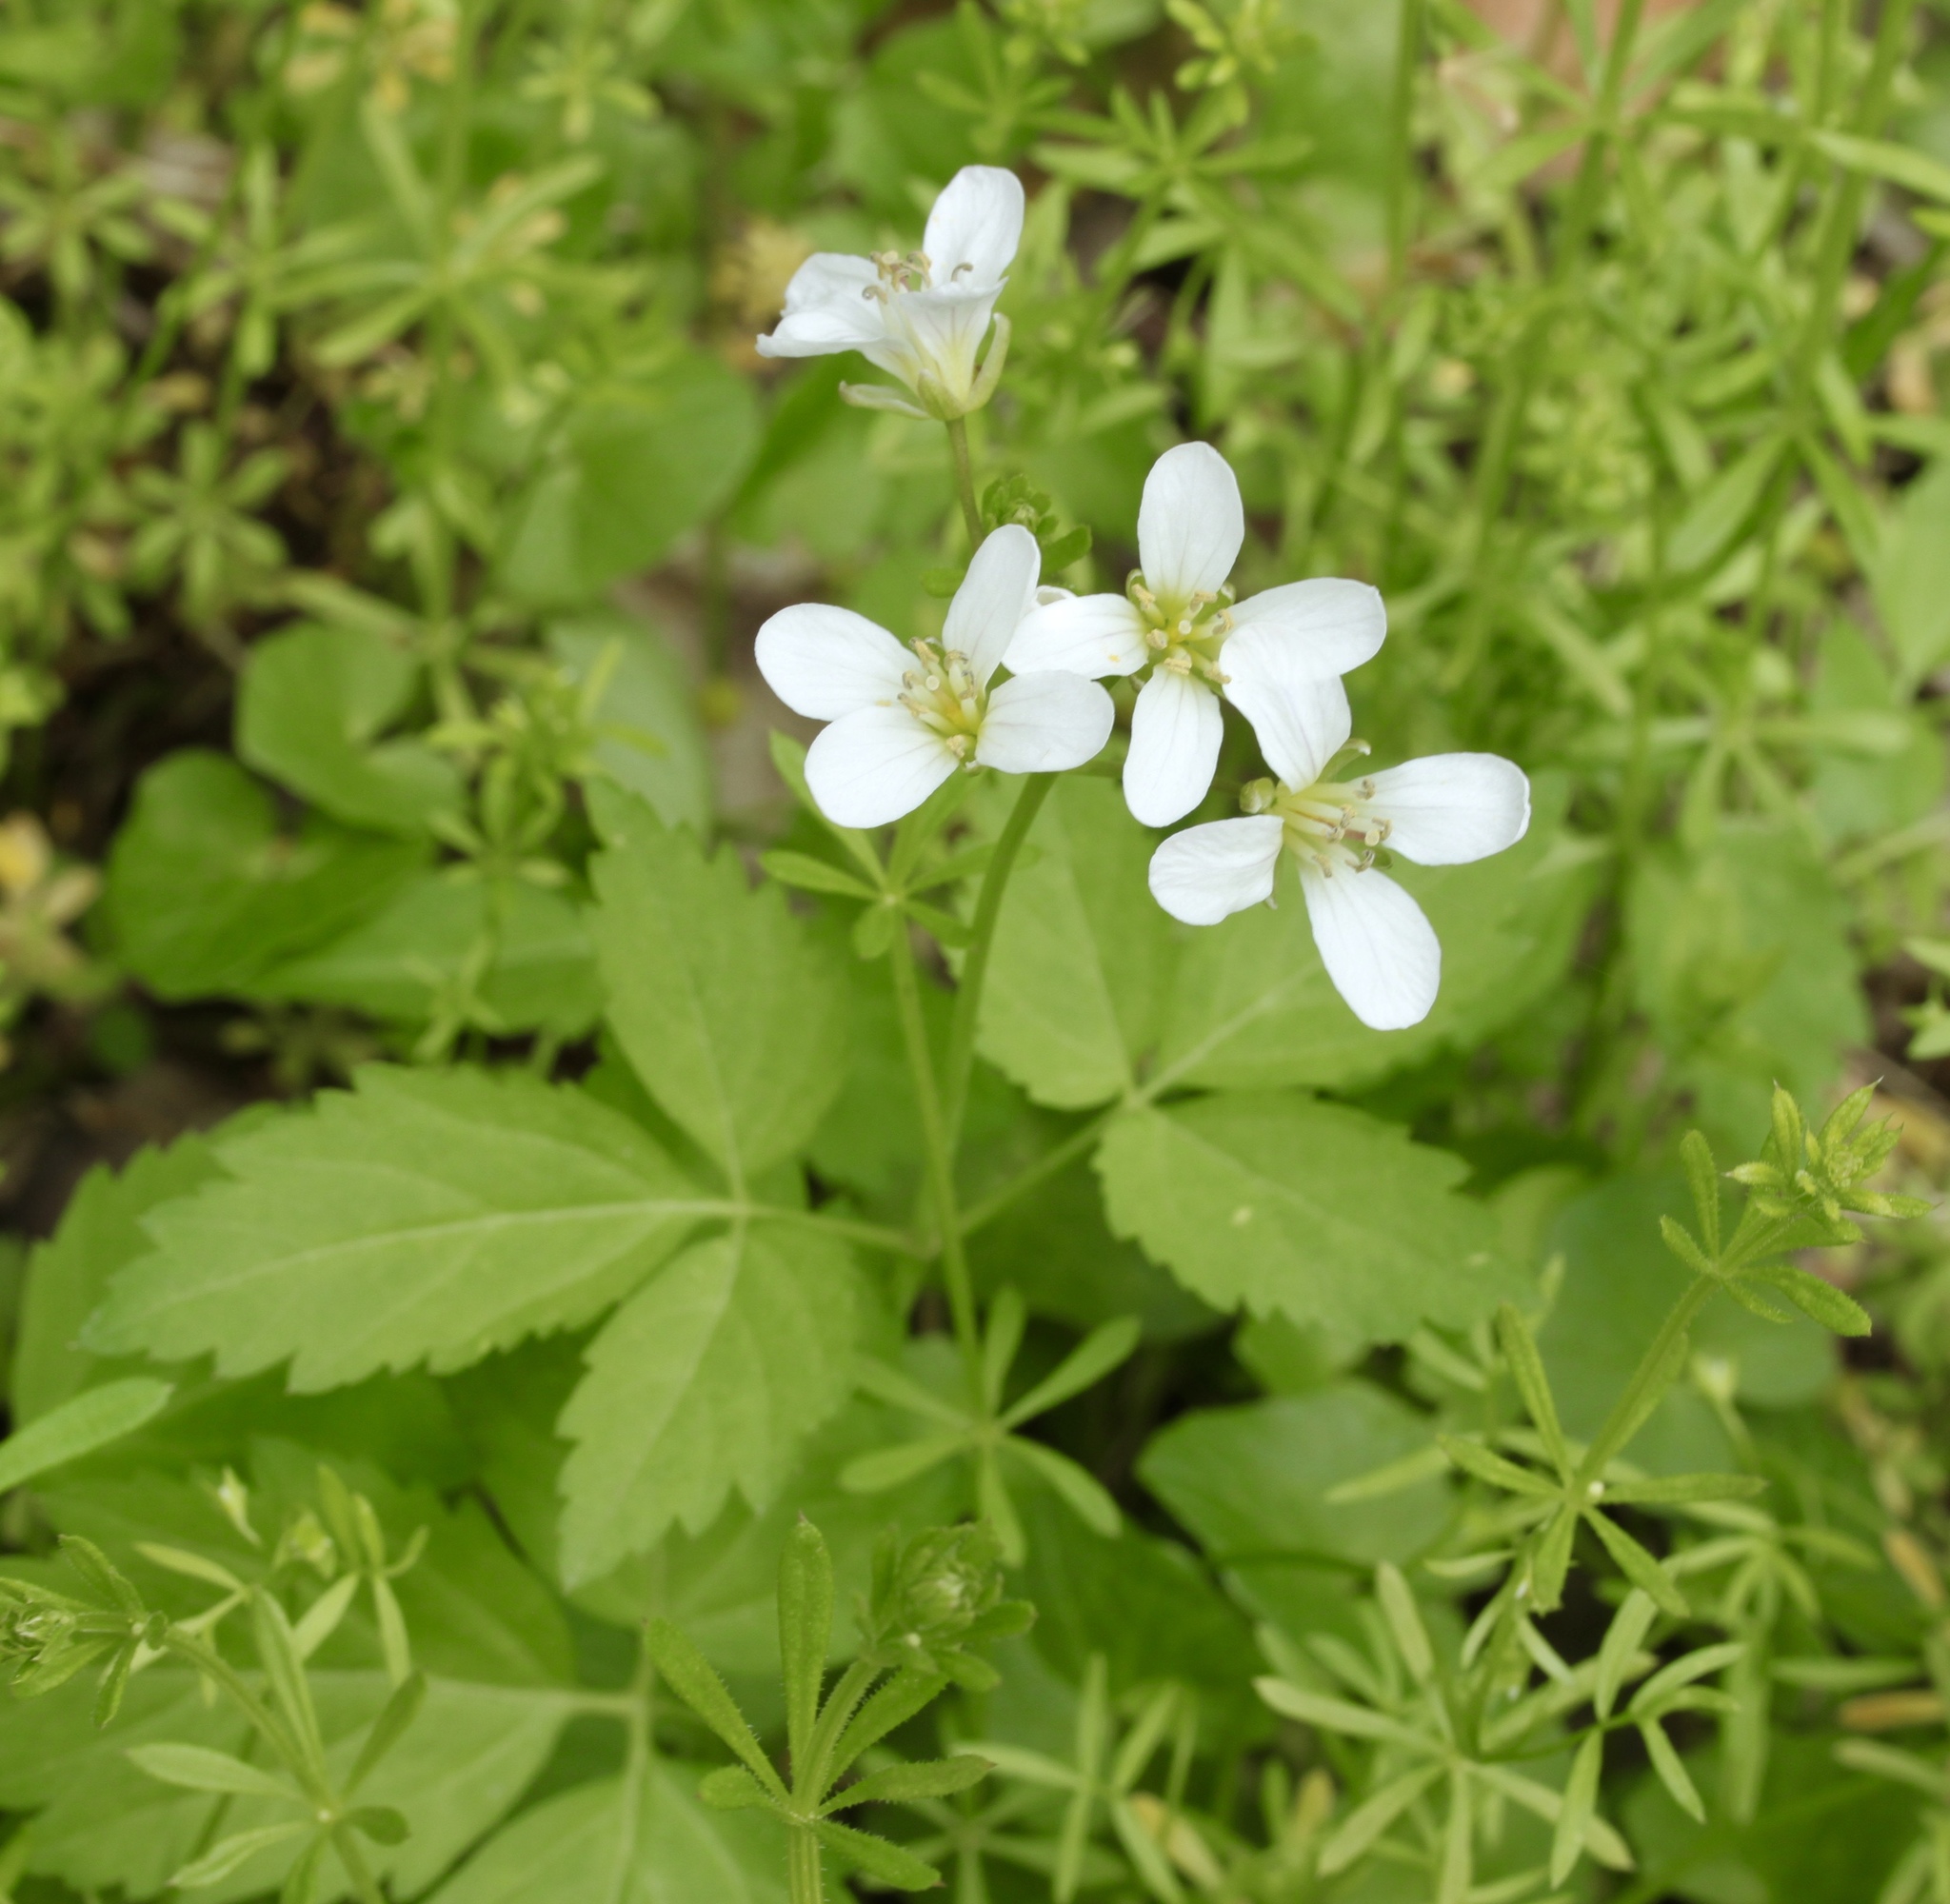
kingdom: Plantae
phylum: Tracheophyta
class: Magnoliopsida
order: Brassicales
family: Brassicaceae
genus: Cardamine
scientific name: Cardamine diphylla
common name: Broad-leaved toothwort
